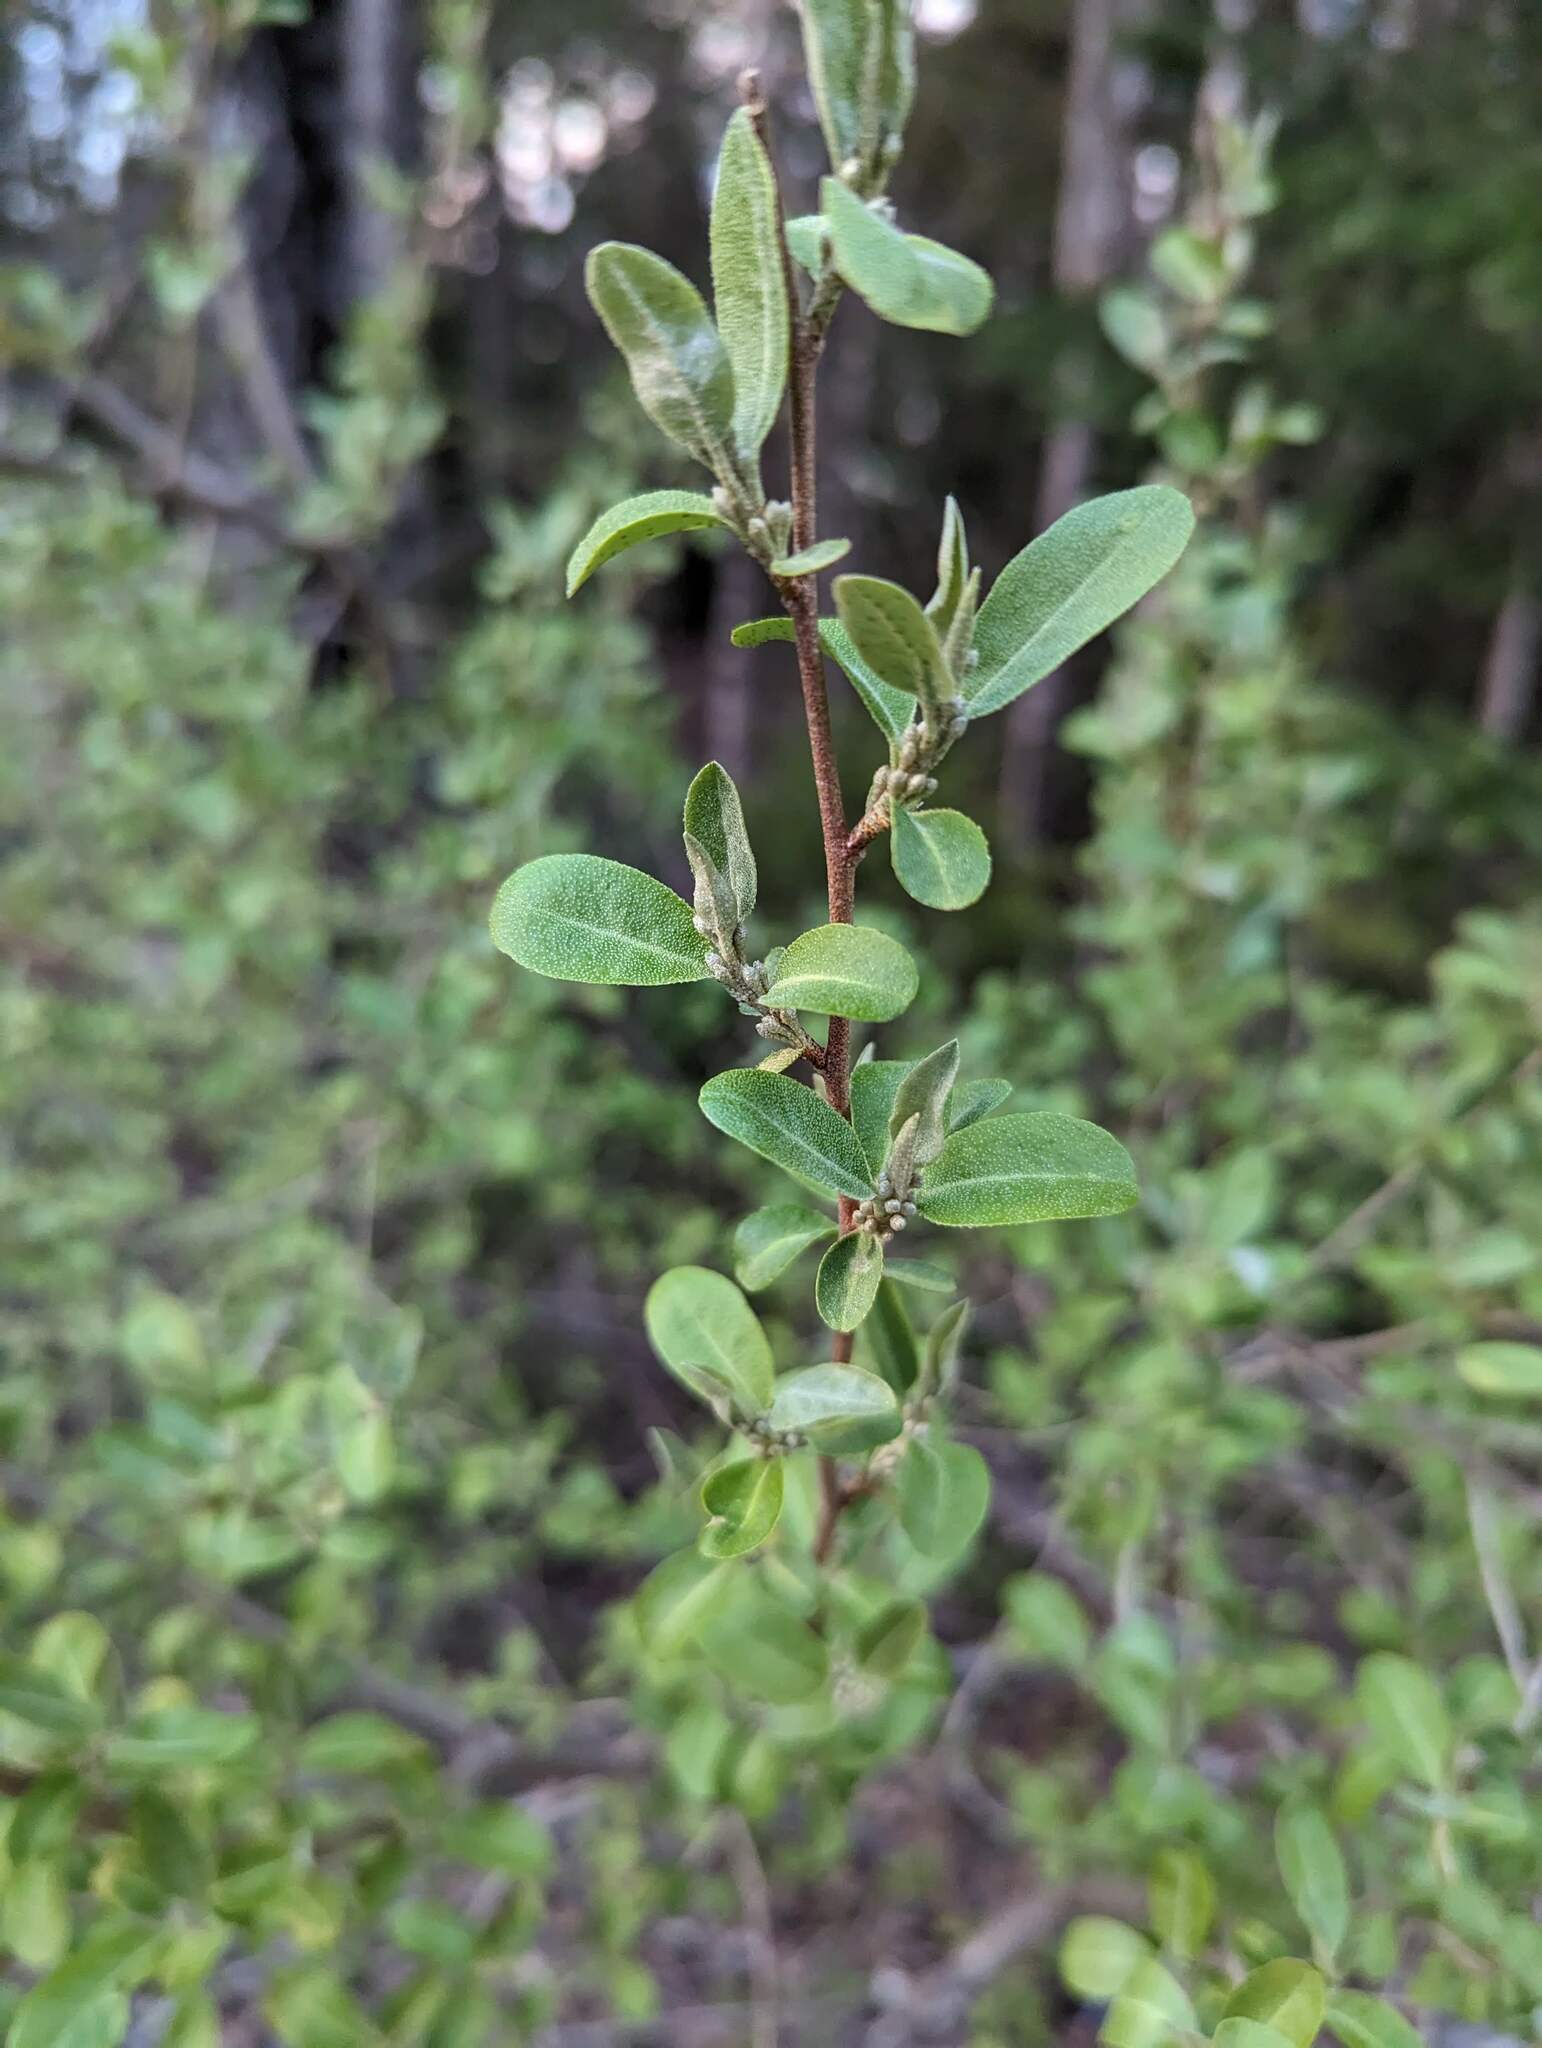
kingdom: Plantae
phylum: Tracheophyta
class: Magnoliopsida
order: Rosales
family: Elaeagnaceae
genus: Elaeagnus
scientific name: Elaeagnus umbellata
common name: Autumn olive
